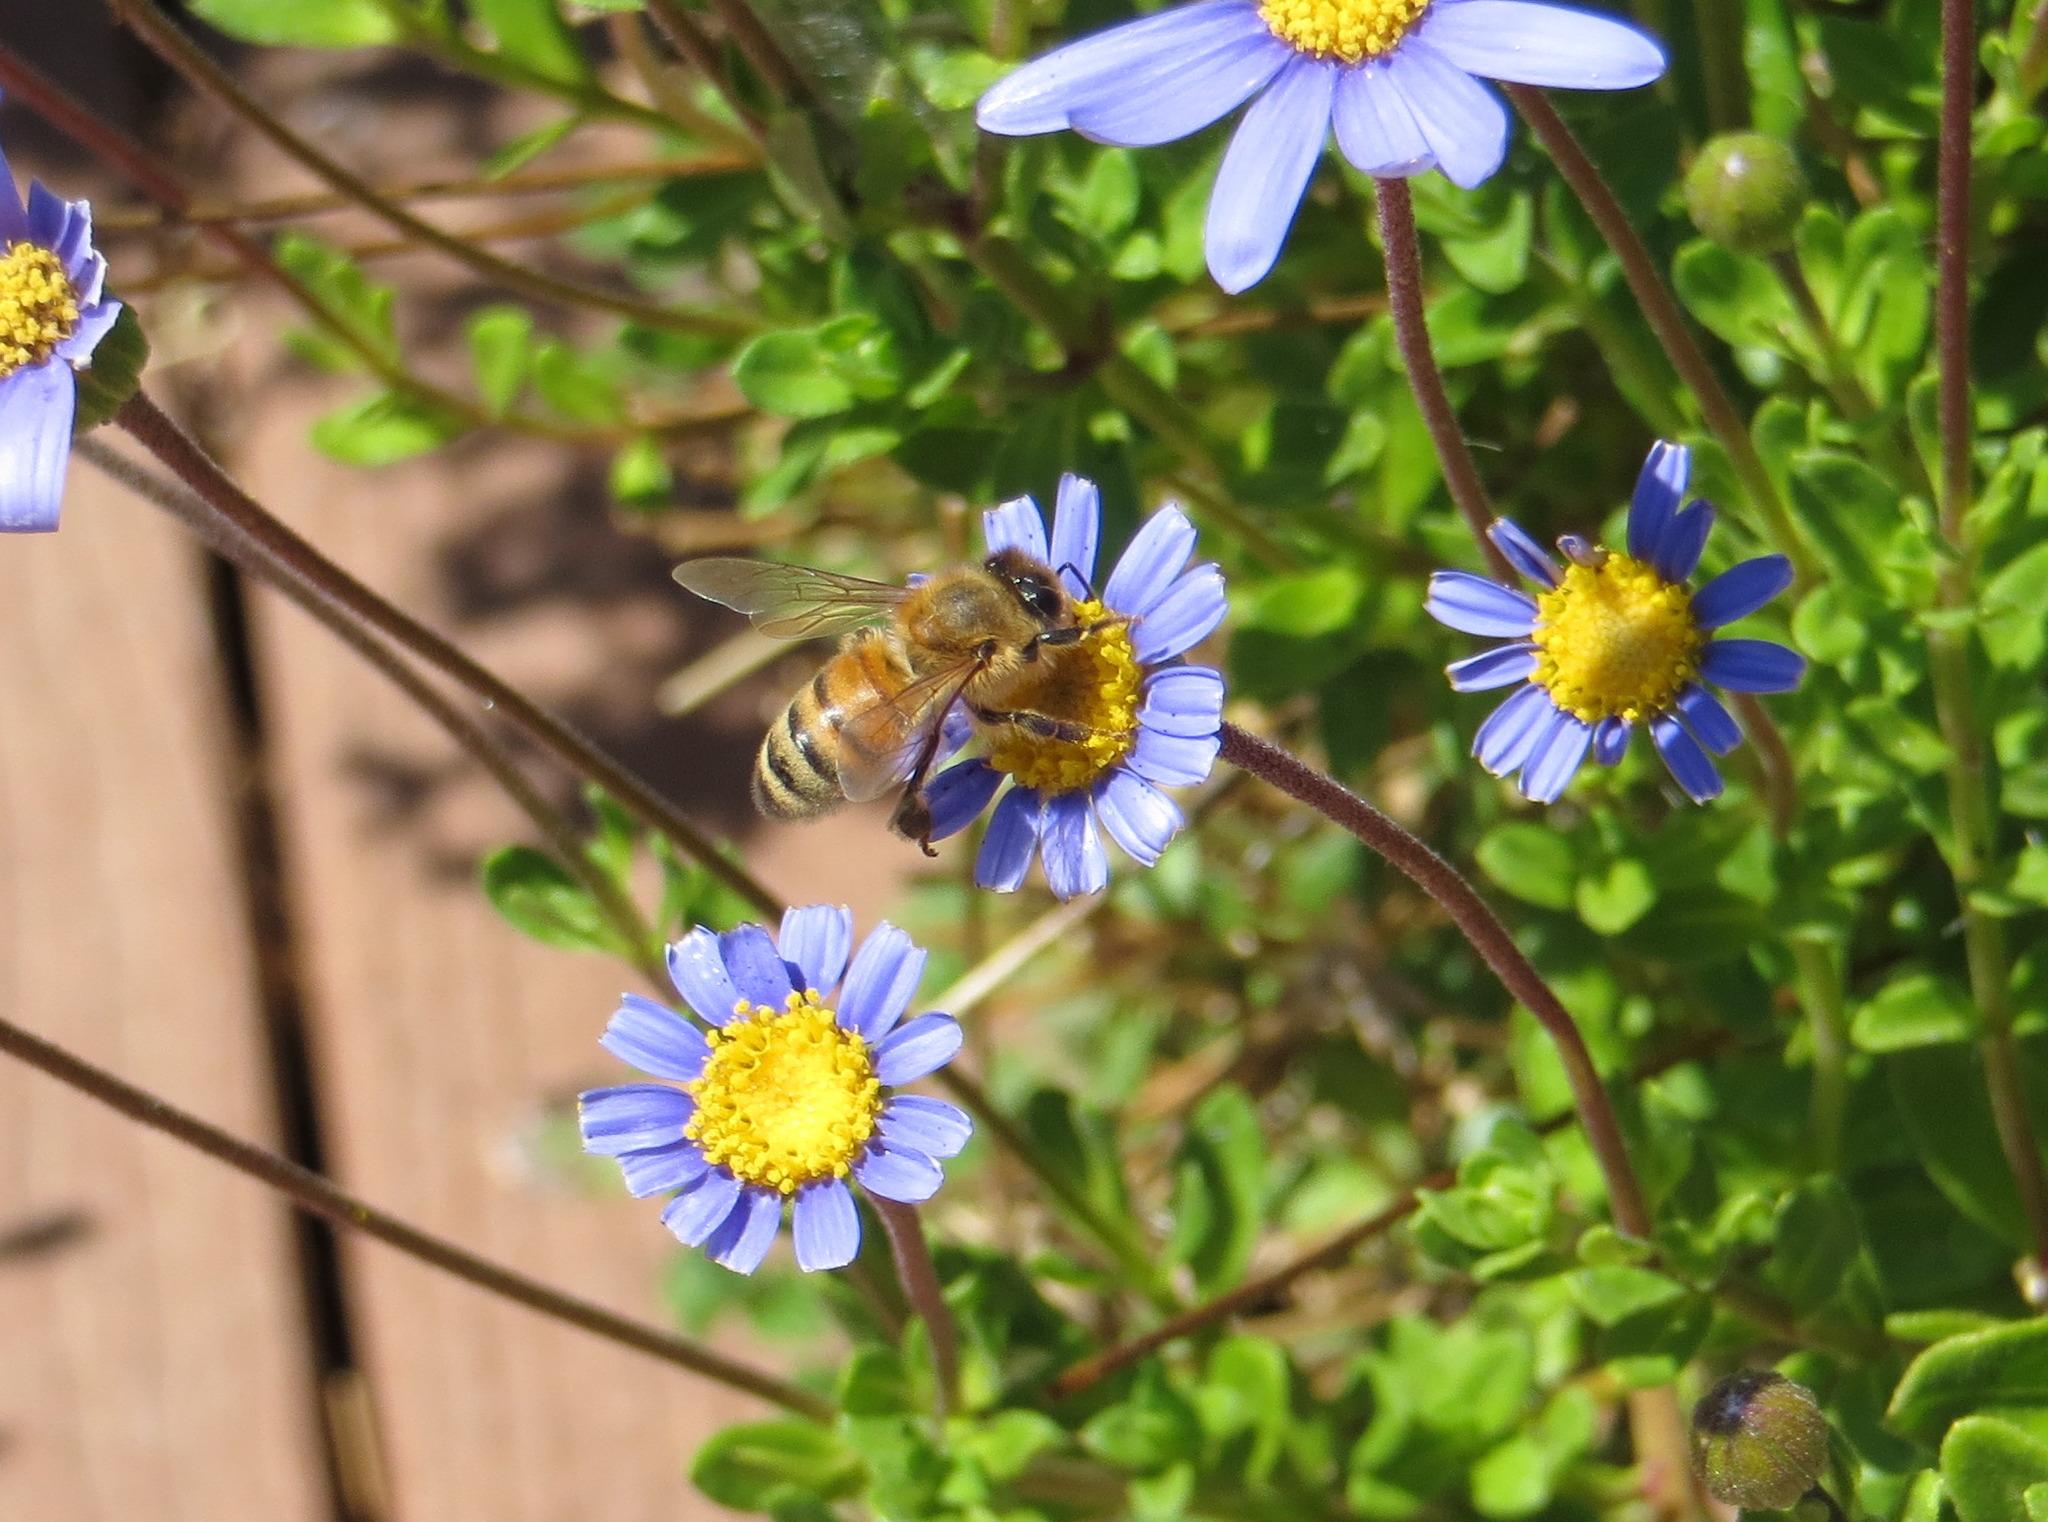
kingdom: Animalia
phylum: Arthropoda
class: Insecta
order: Hymenoptera
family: Apidae
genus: Apis
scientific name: Apis mellifera
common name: Honey bee
